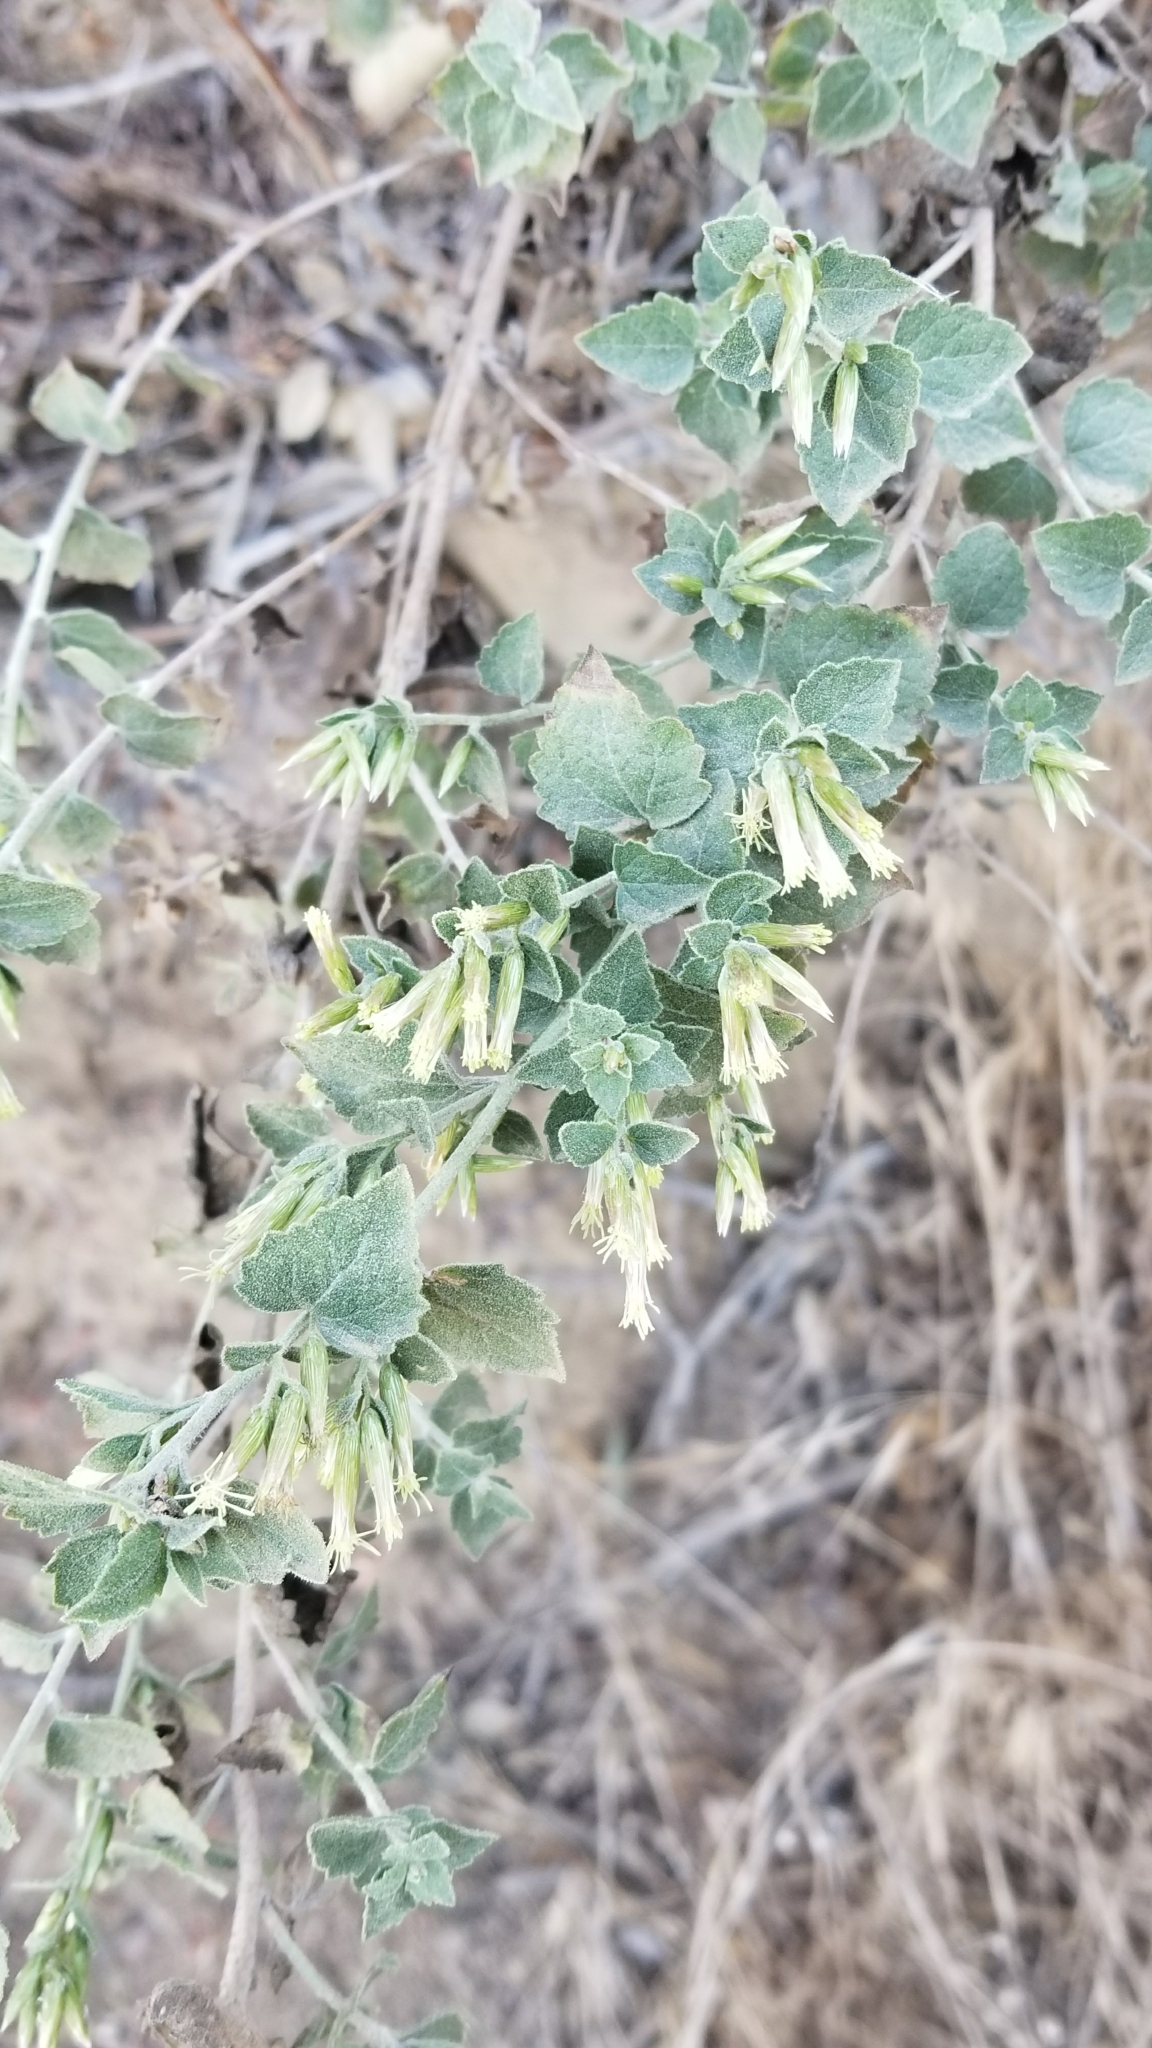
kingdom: Plantae
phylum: Tracheophyta
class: Magnoliopsida
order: Asterales
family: Asteraceae
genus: Brickellia
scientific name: Brickellia californica
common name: California brickellbush
